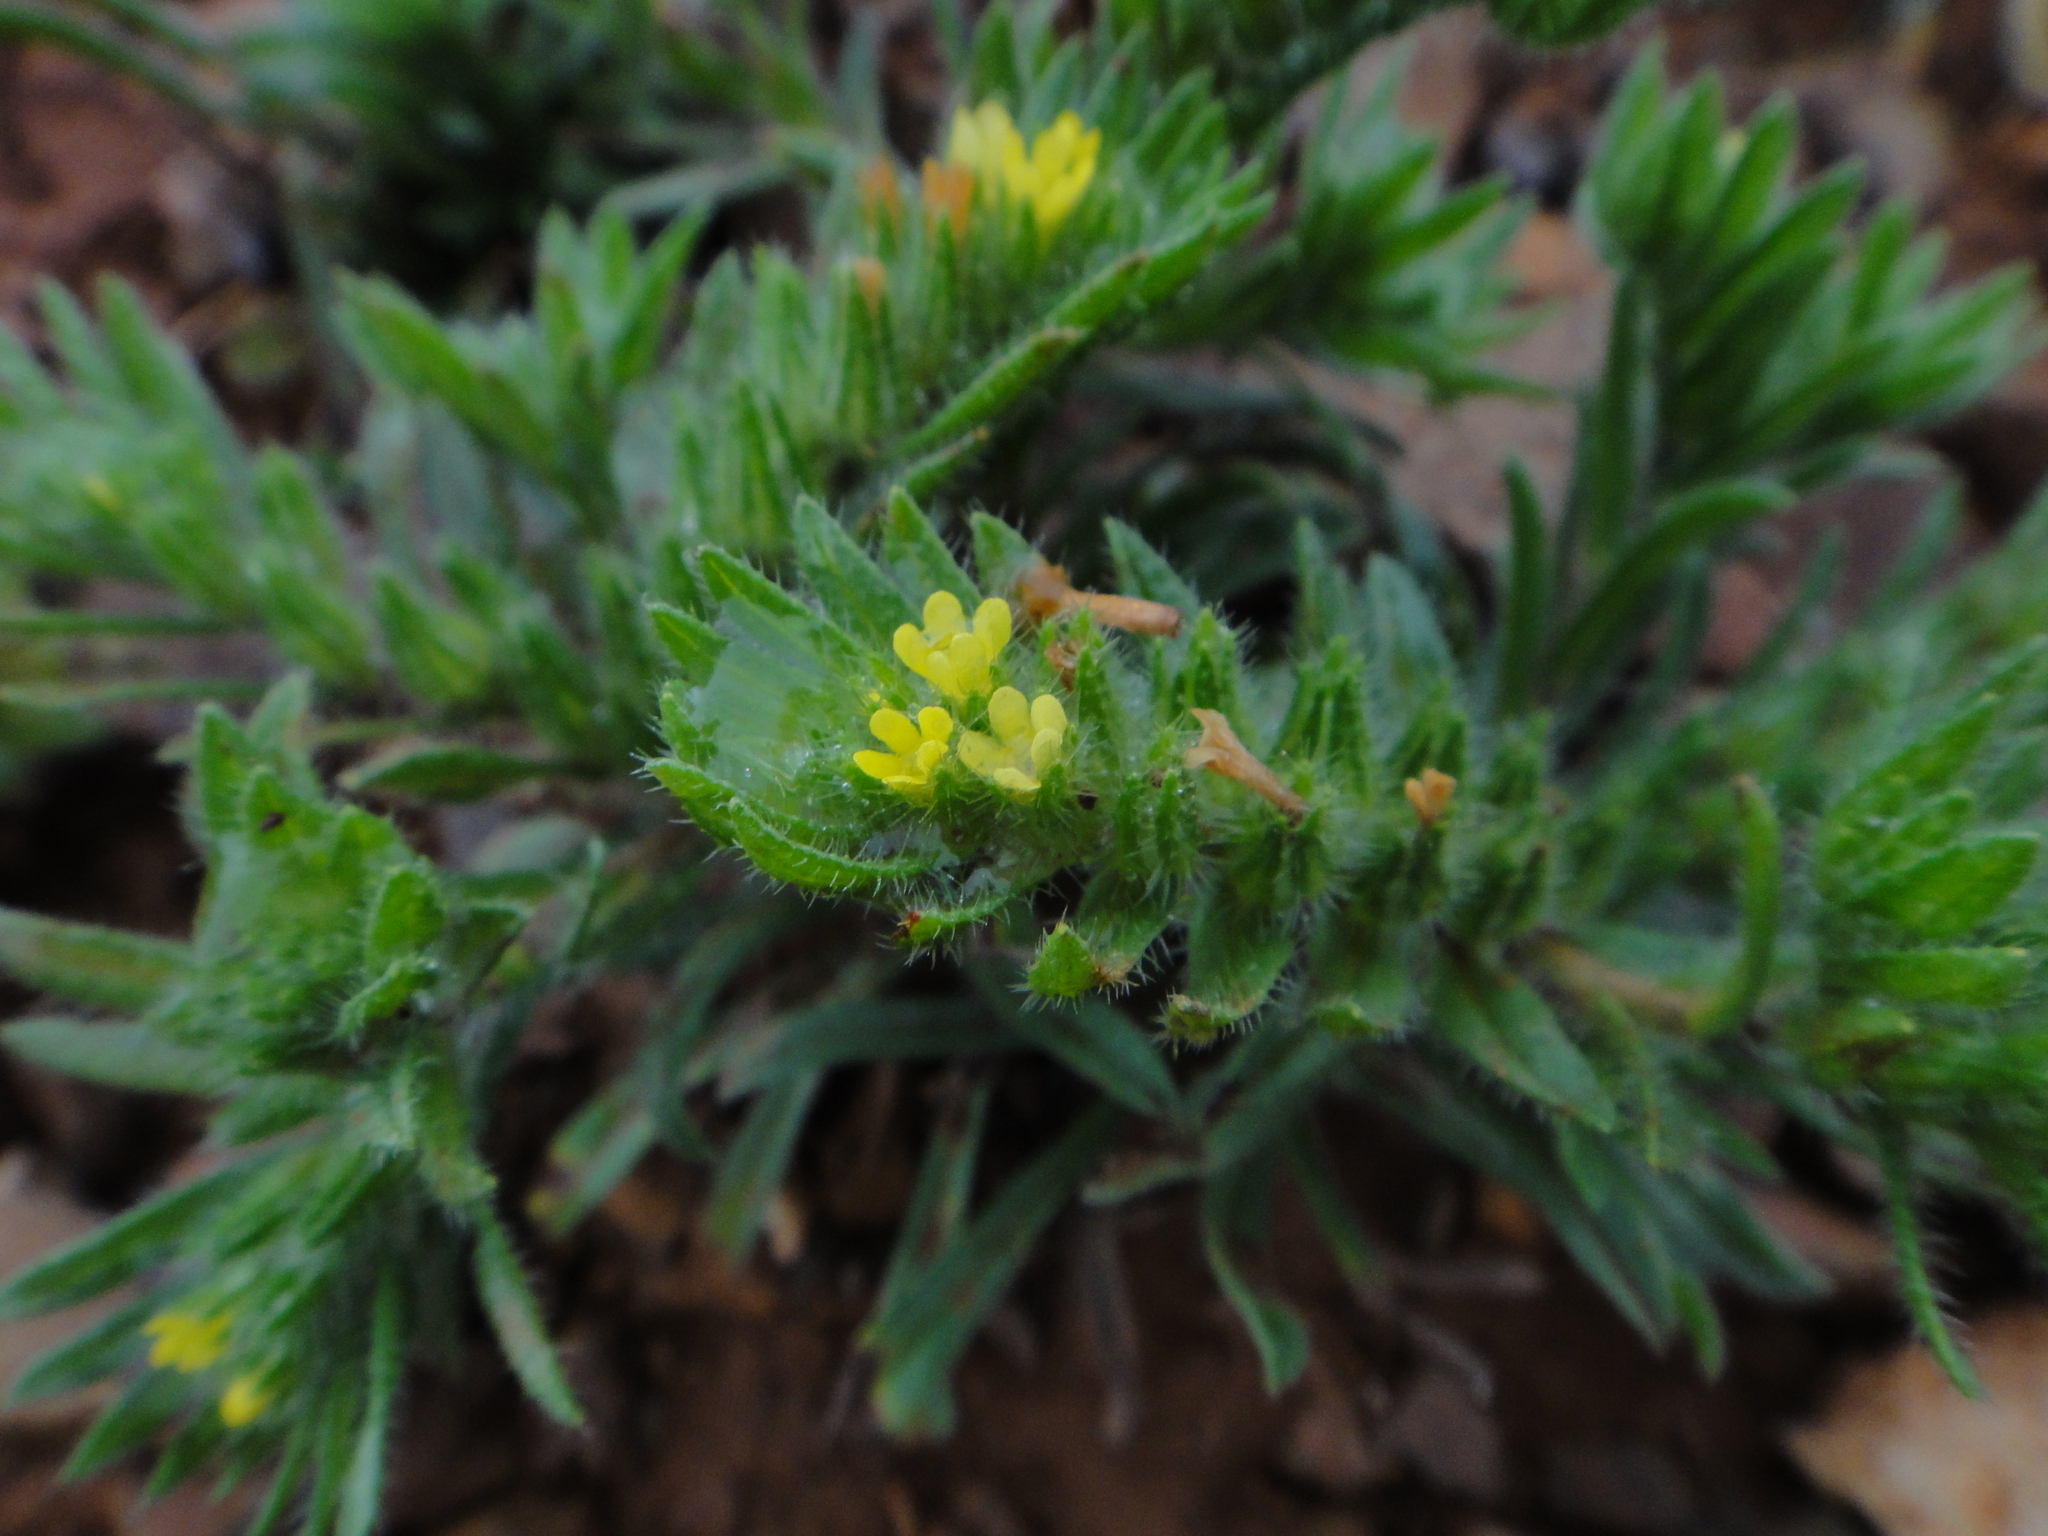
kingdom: Plantae
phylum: Tracheophyta
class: Magnoliopsida
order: Boraginales
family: Boraginaceae
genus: Neatostema
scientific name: Neatostema apulum
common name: Hairy sheepweed
